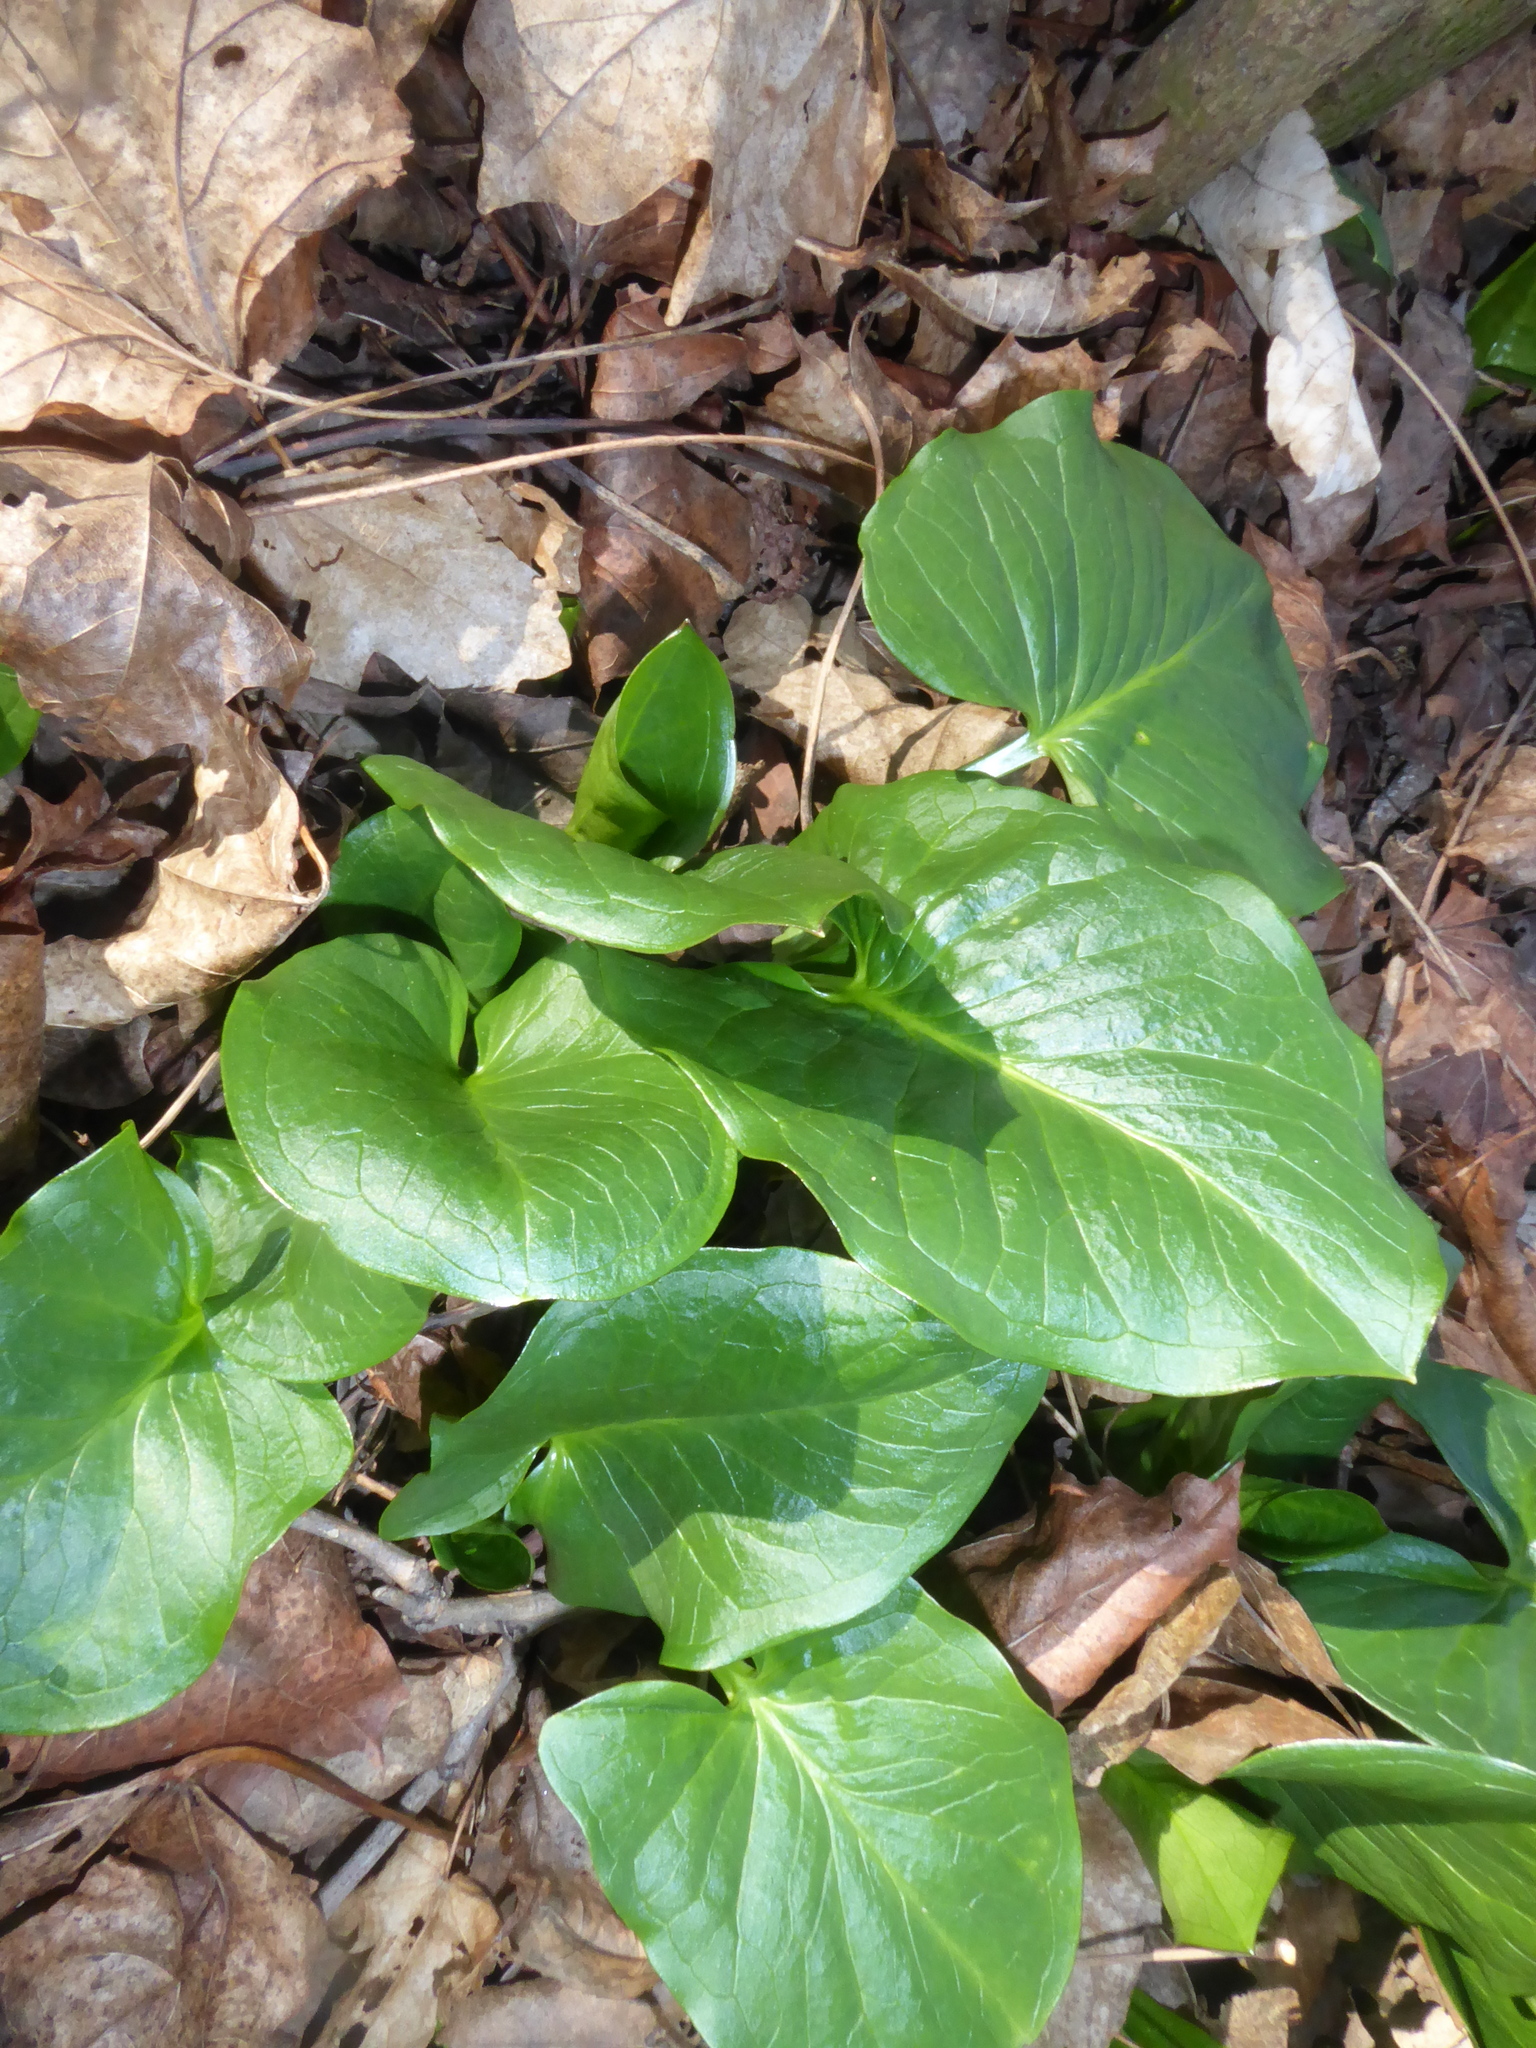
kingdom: Plantae
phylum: Tracheophyta
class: Liliopsida
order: Alismatales
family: Araceae
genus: Arum
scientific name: Arum cylindraceum
